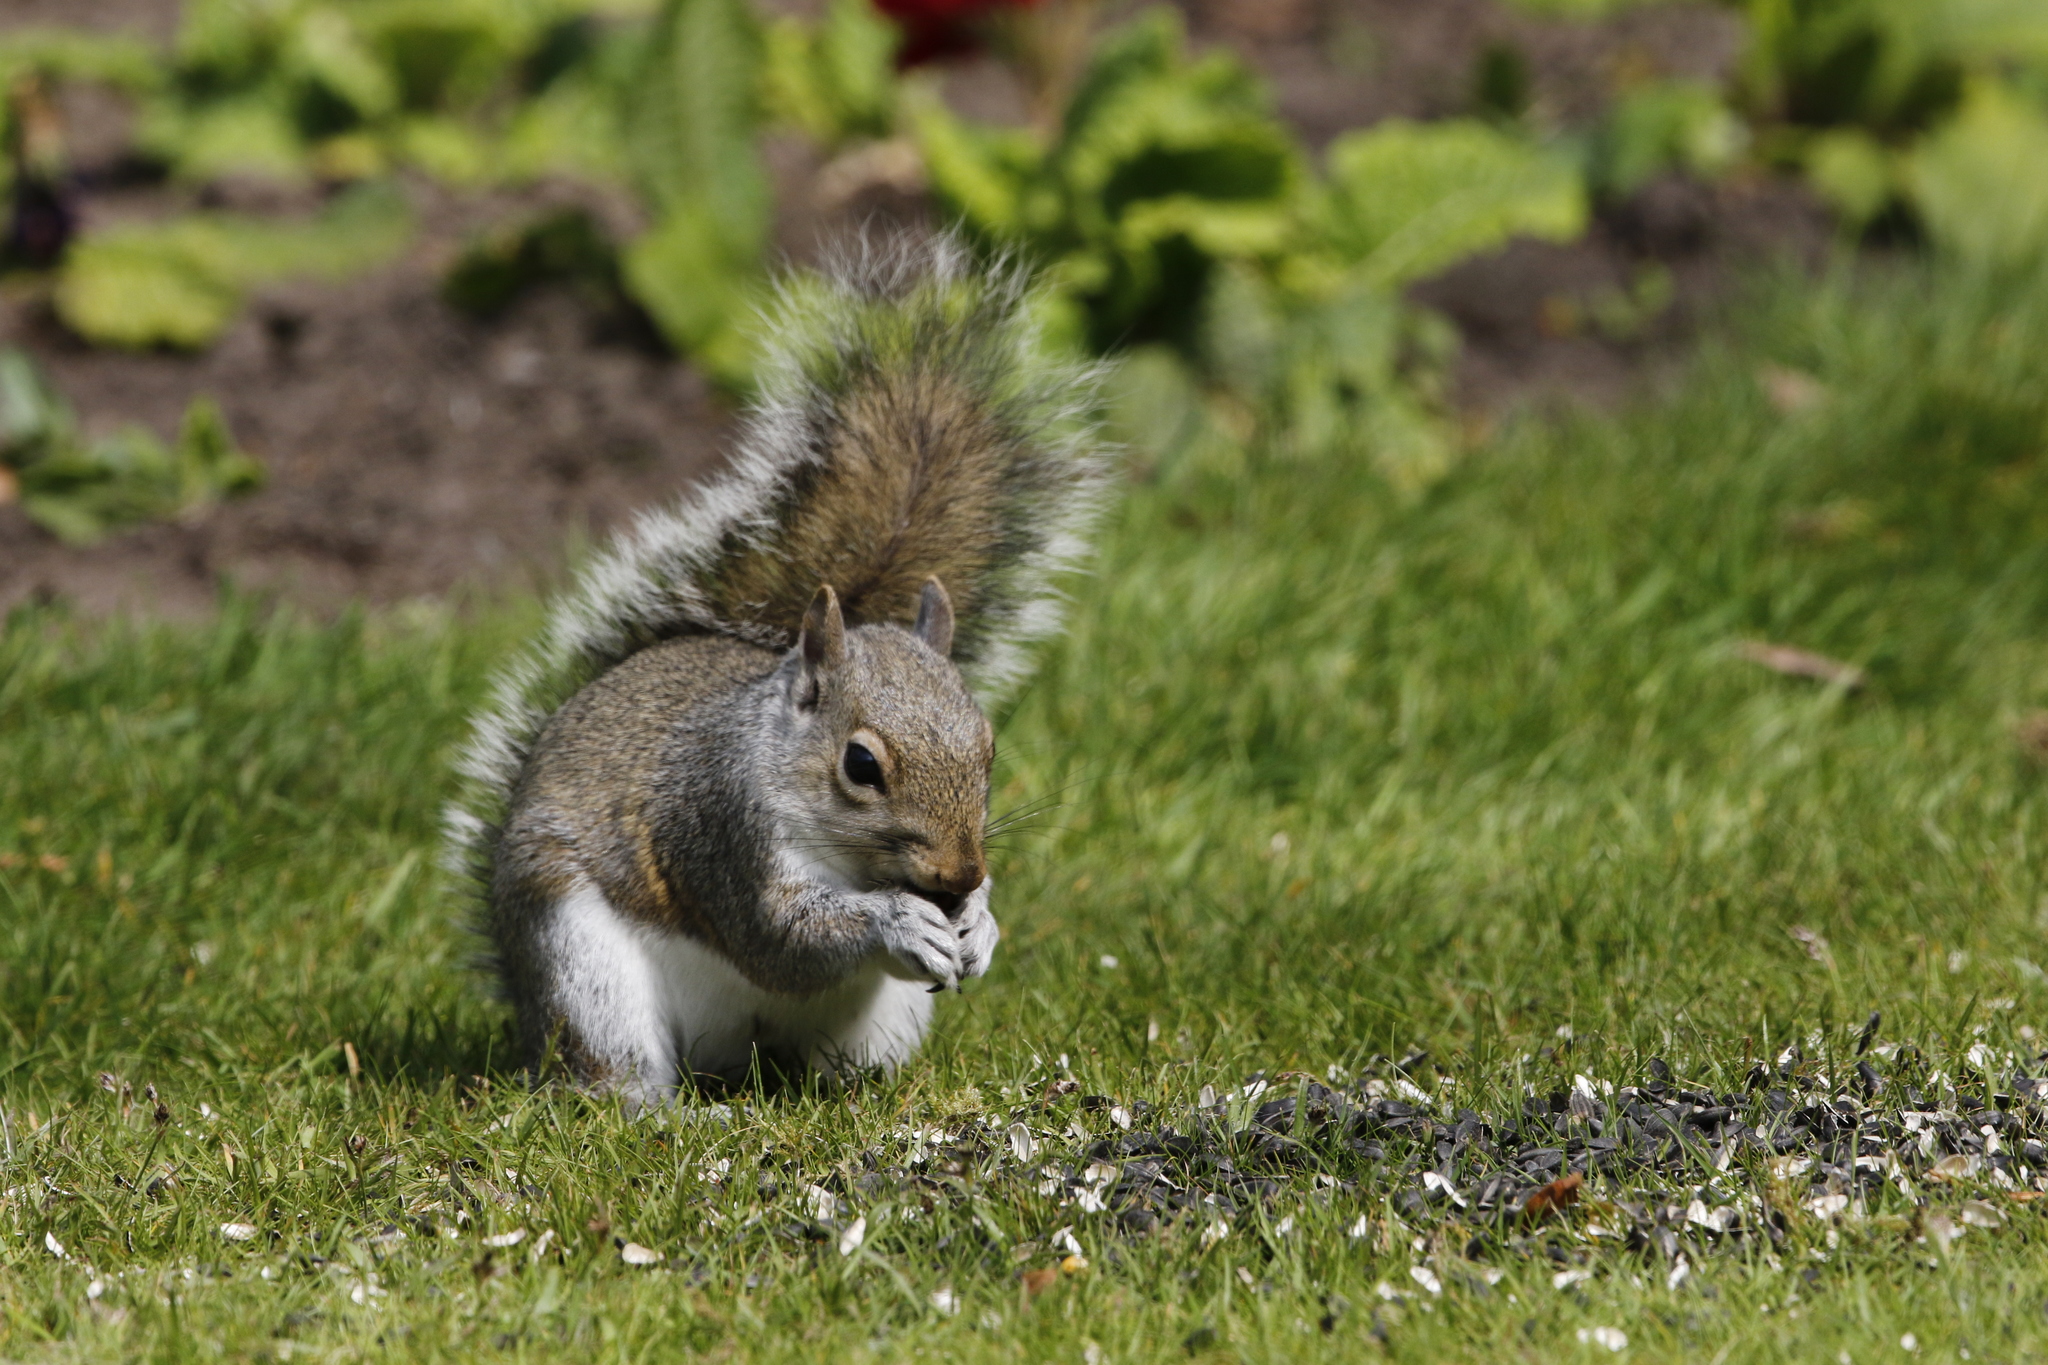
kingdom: Animalia
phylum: Chordata
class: Mammalia
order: Rodentia
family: Sciuridae
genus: Sciurus
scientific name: Sciurus carolinensis
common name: Eastern gray squirrel
